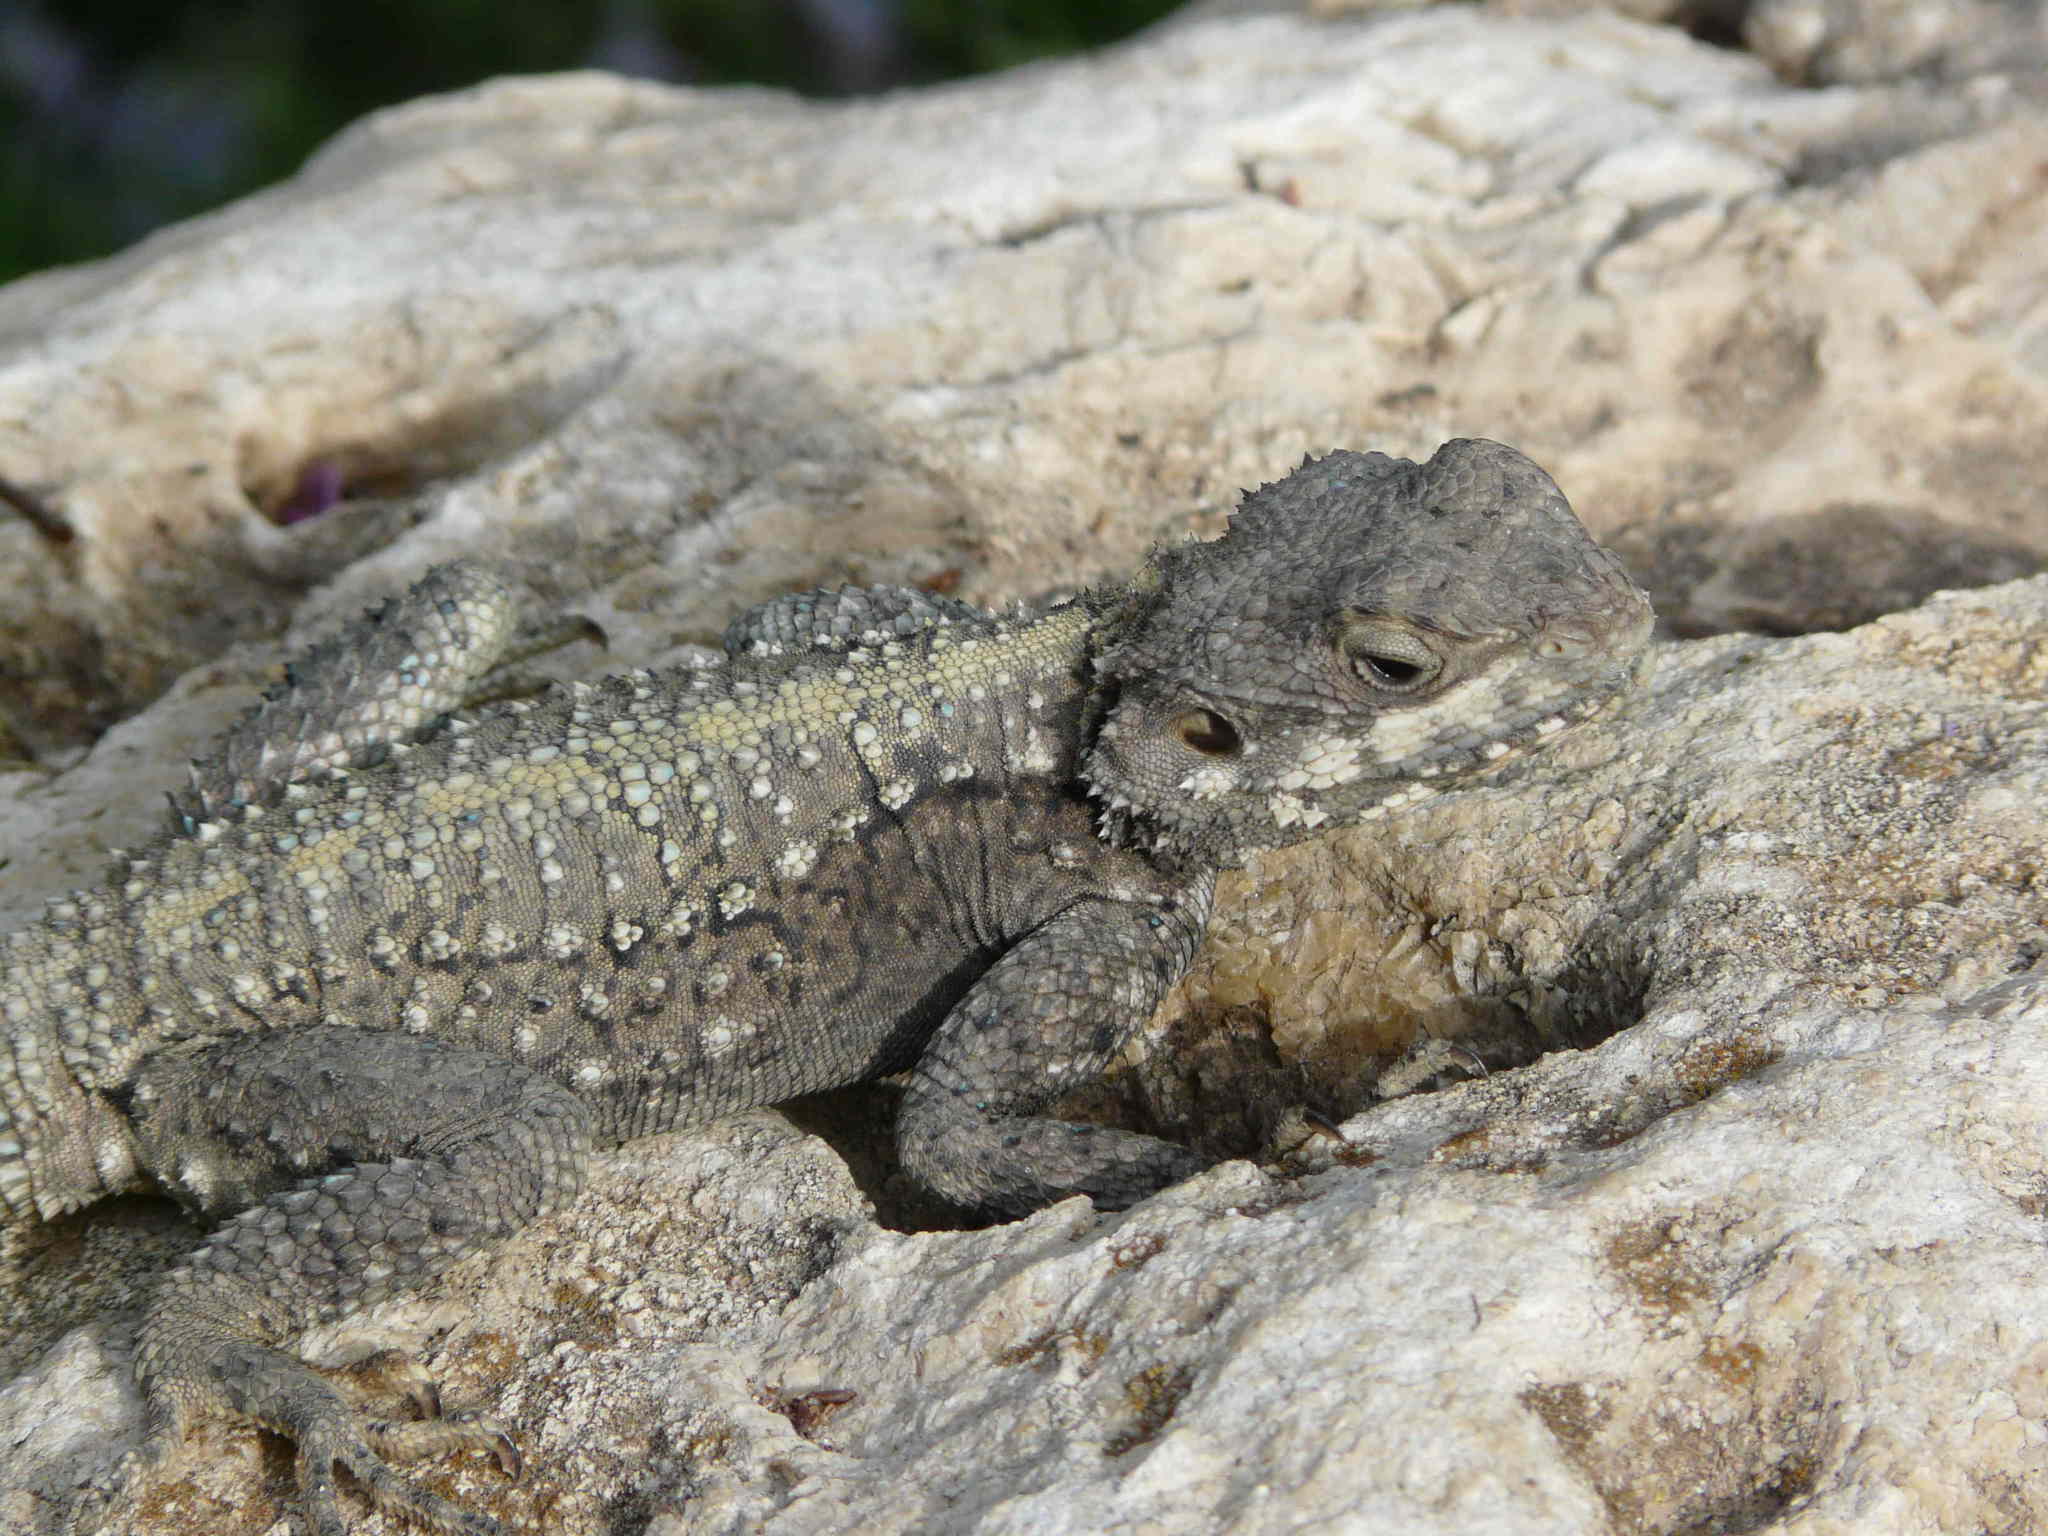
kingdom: Animalia
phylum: Chordata
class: Squamata
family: Agamidae
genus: Laudakia
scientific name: Laudakia vulgaris
